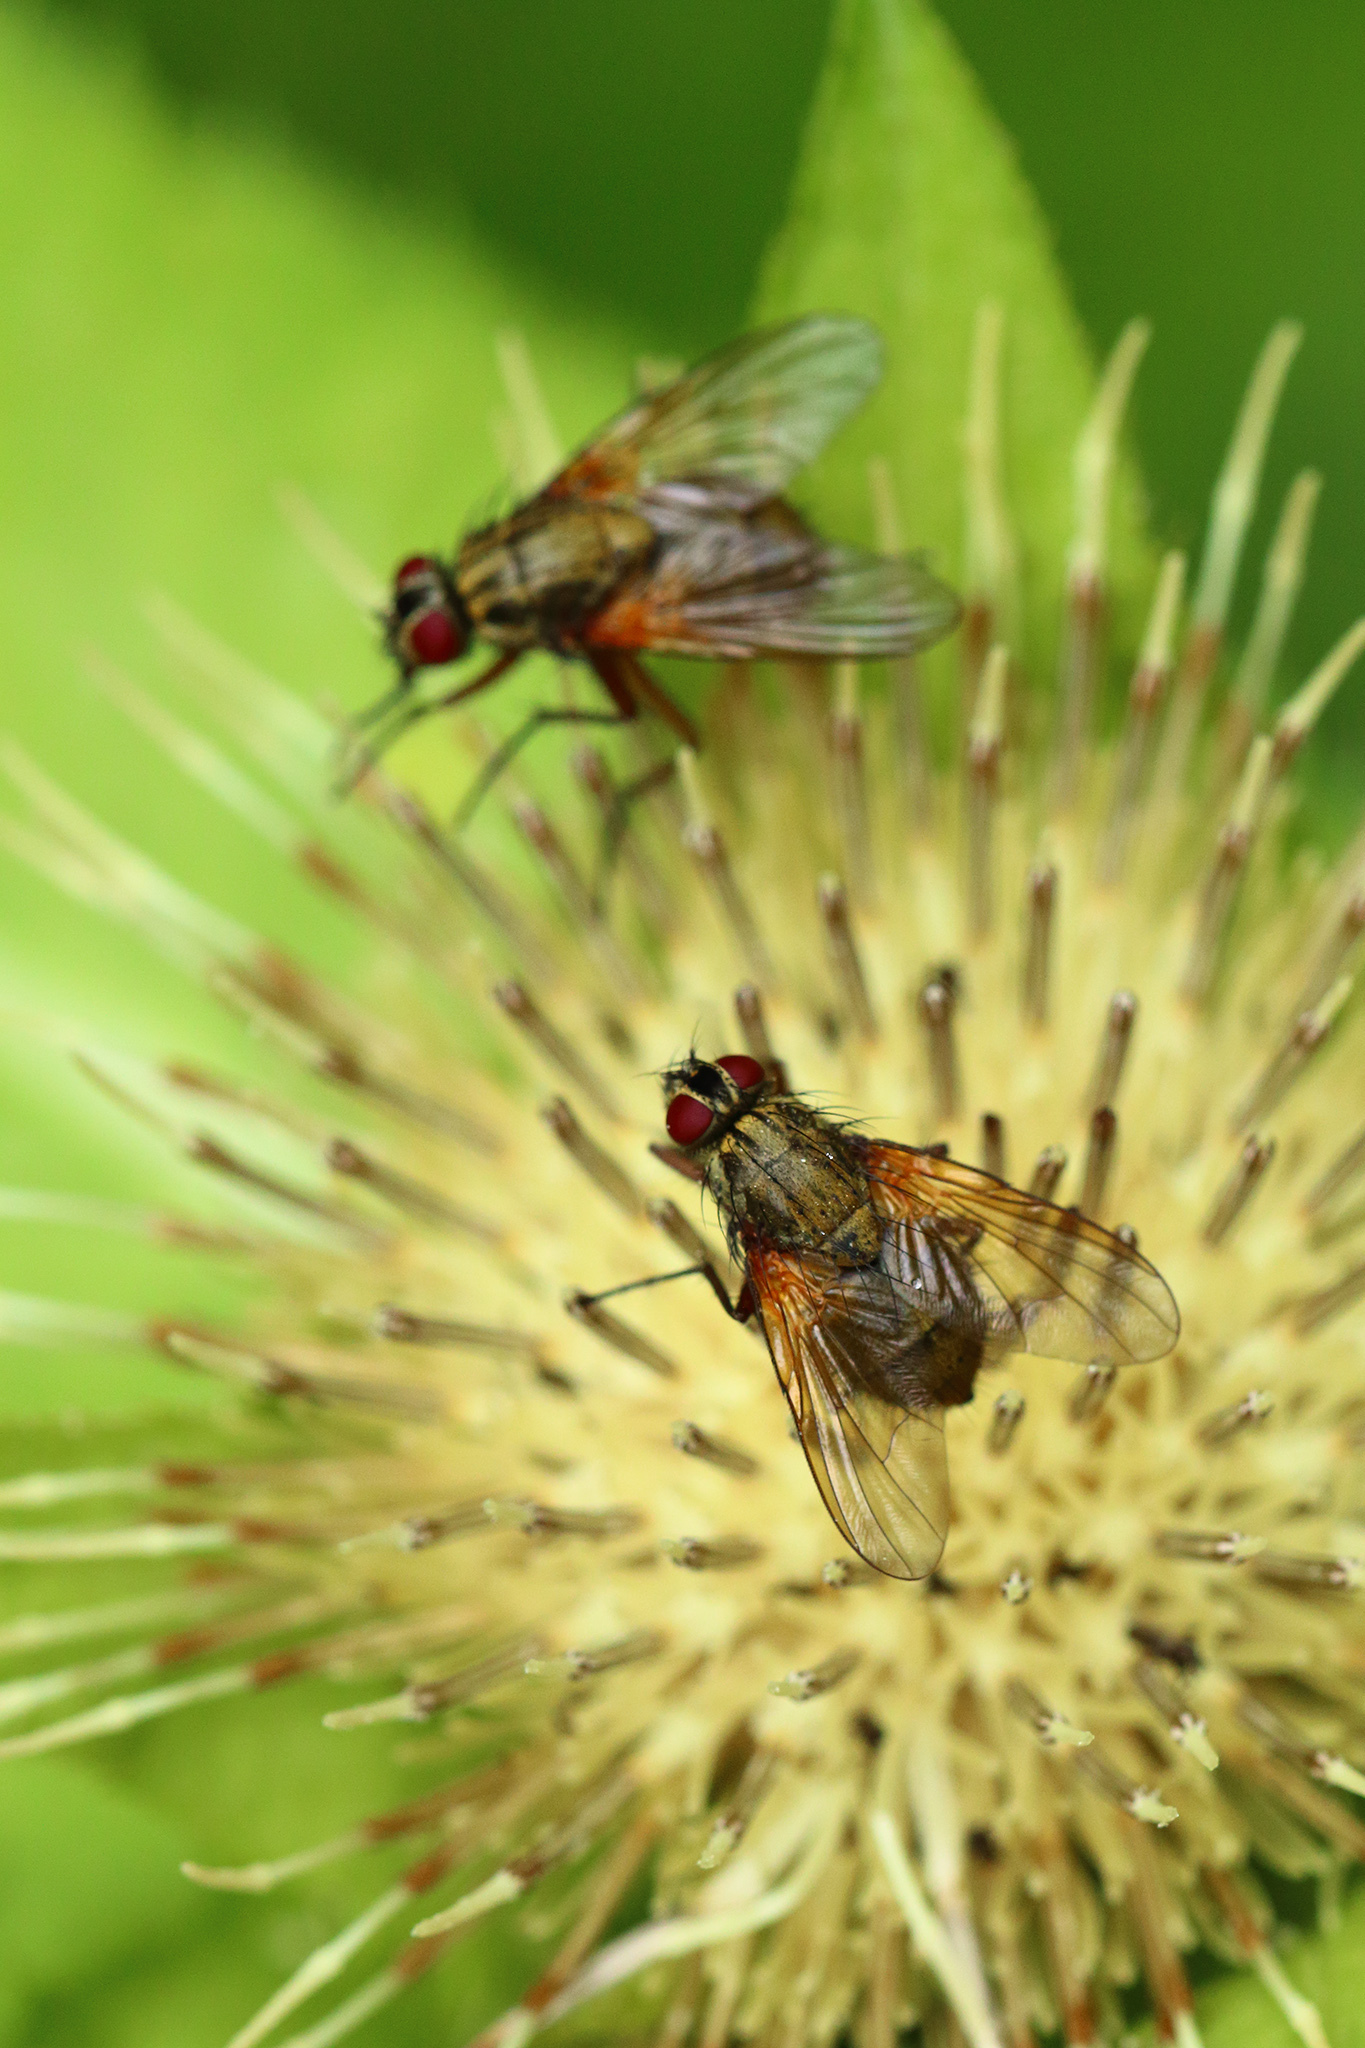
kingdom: Animalia
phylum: Arthropoda
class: Insecta
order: Diptera
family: Muscidae
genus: Phaonia
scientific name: Phaonia angelicae
